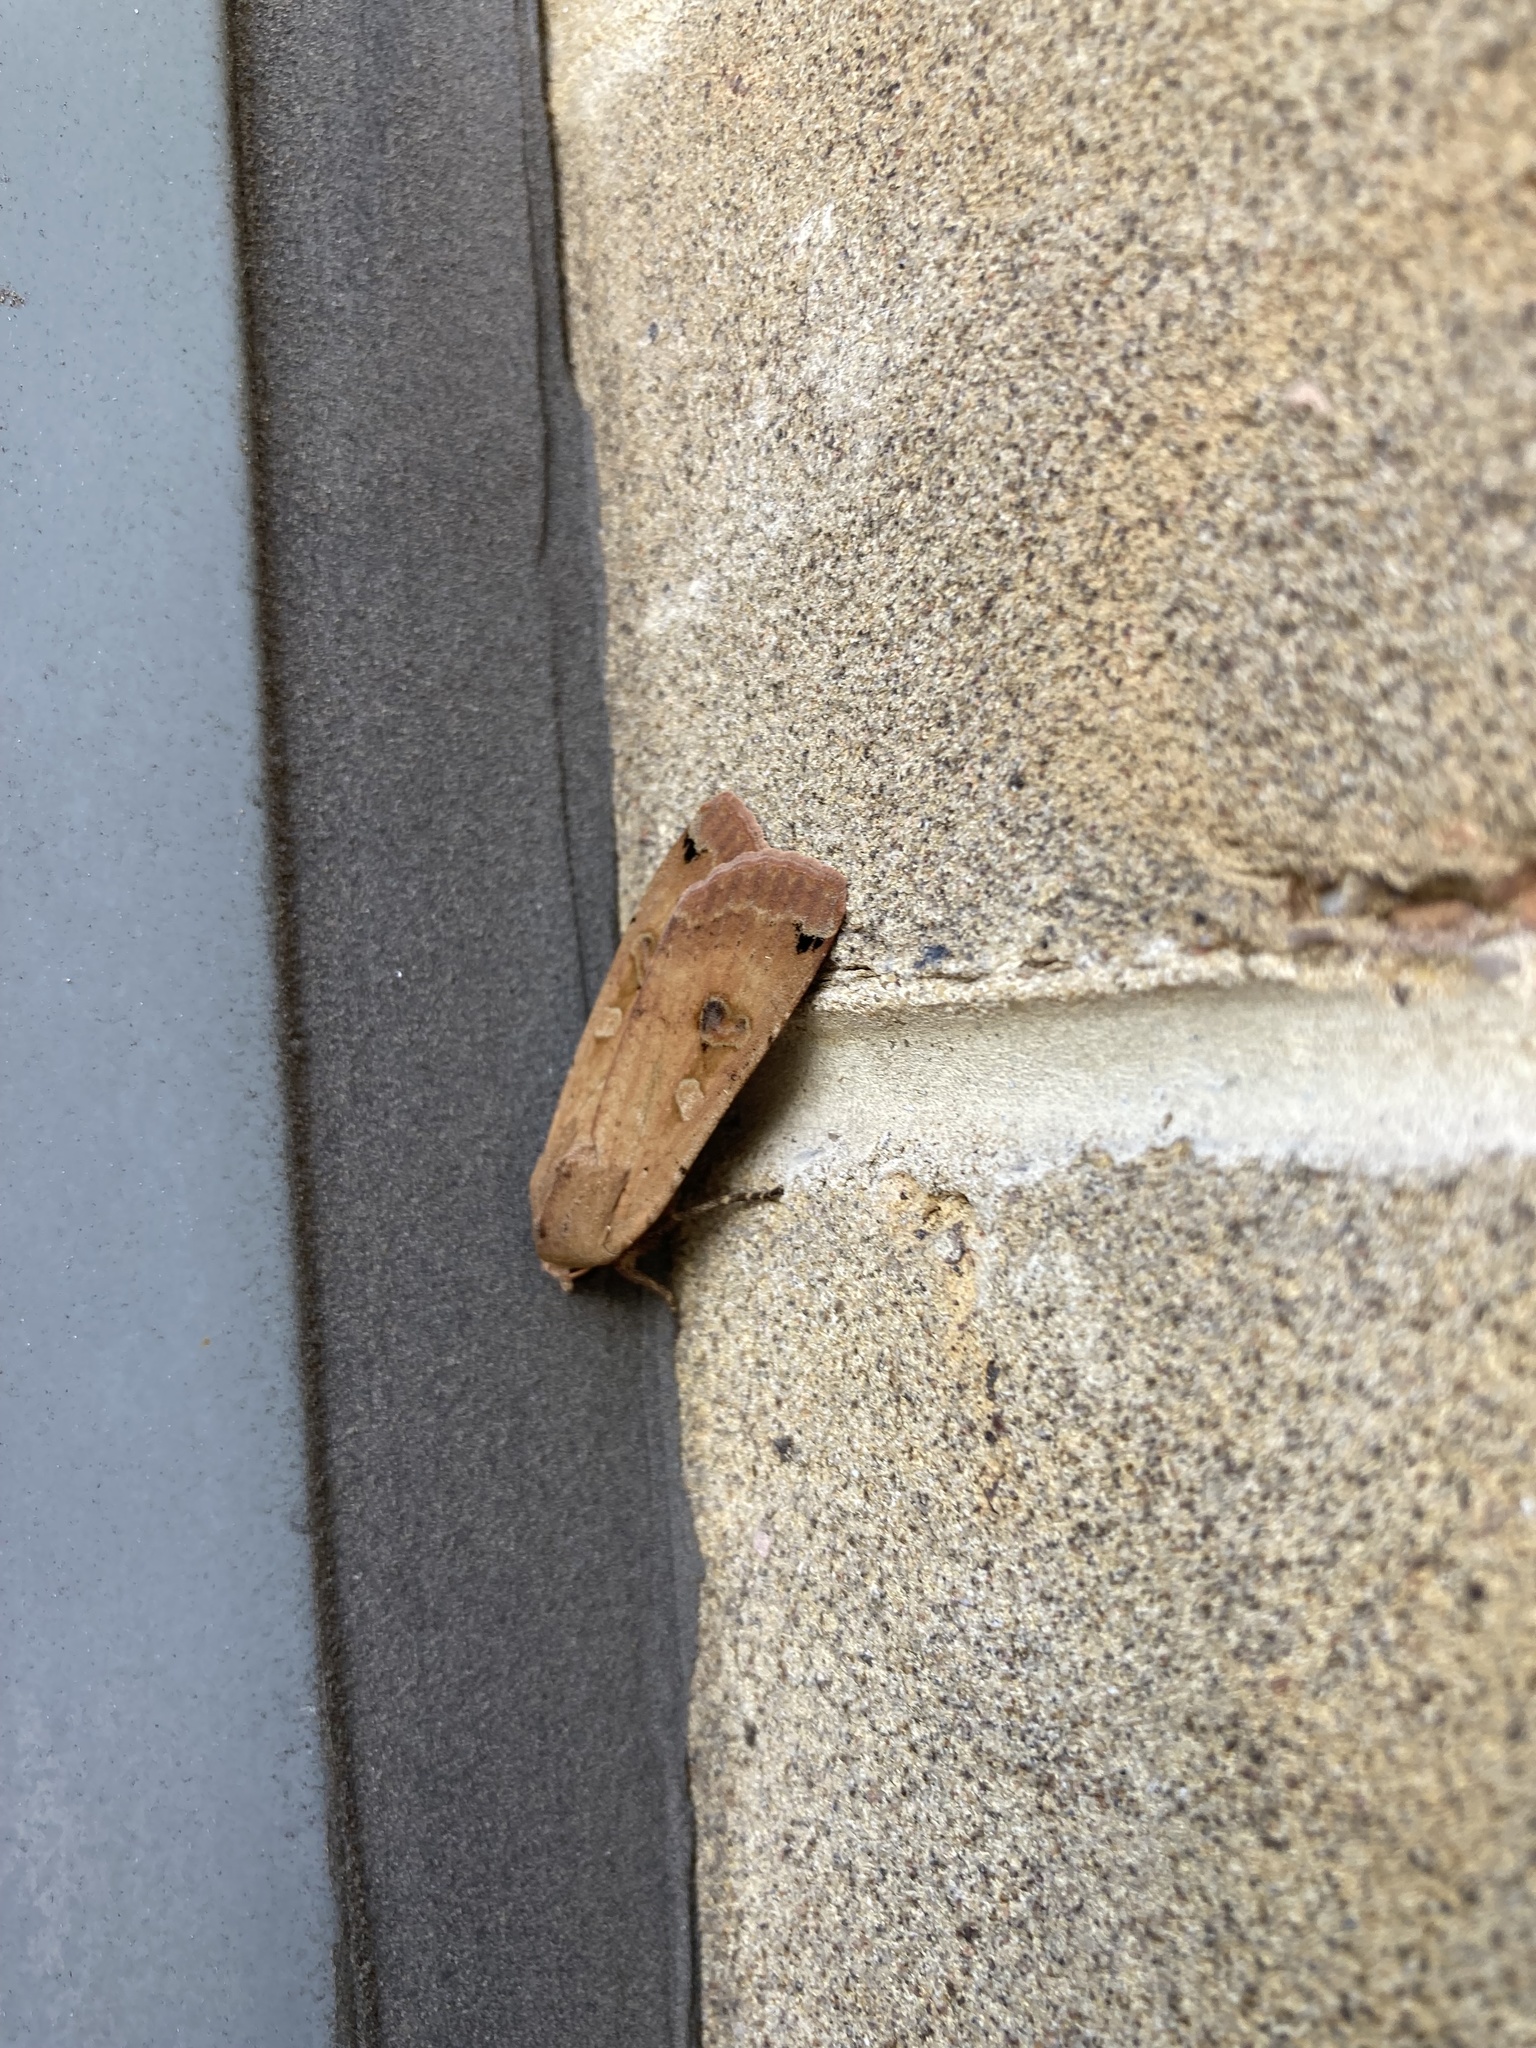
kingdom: Animalia
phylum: Arthropoda
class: Insecta
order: Lepidoptera
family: Noctuidae
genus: Noctua
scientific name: Noctua pronuba
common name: Large yellow underwing
